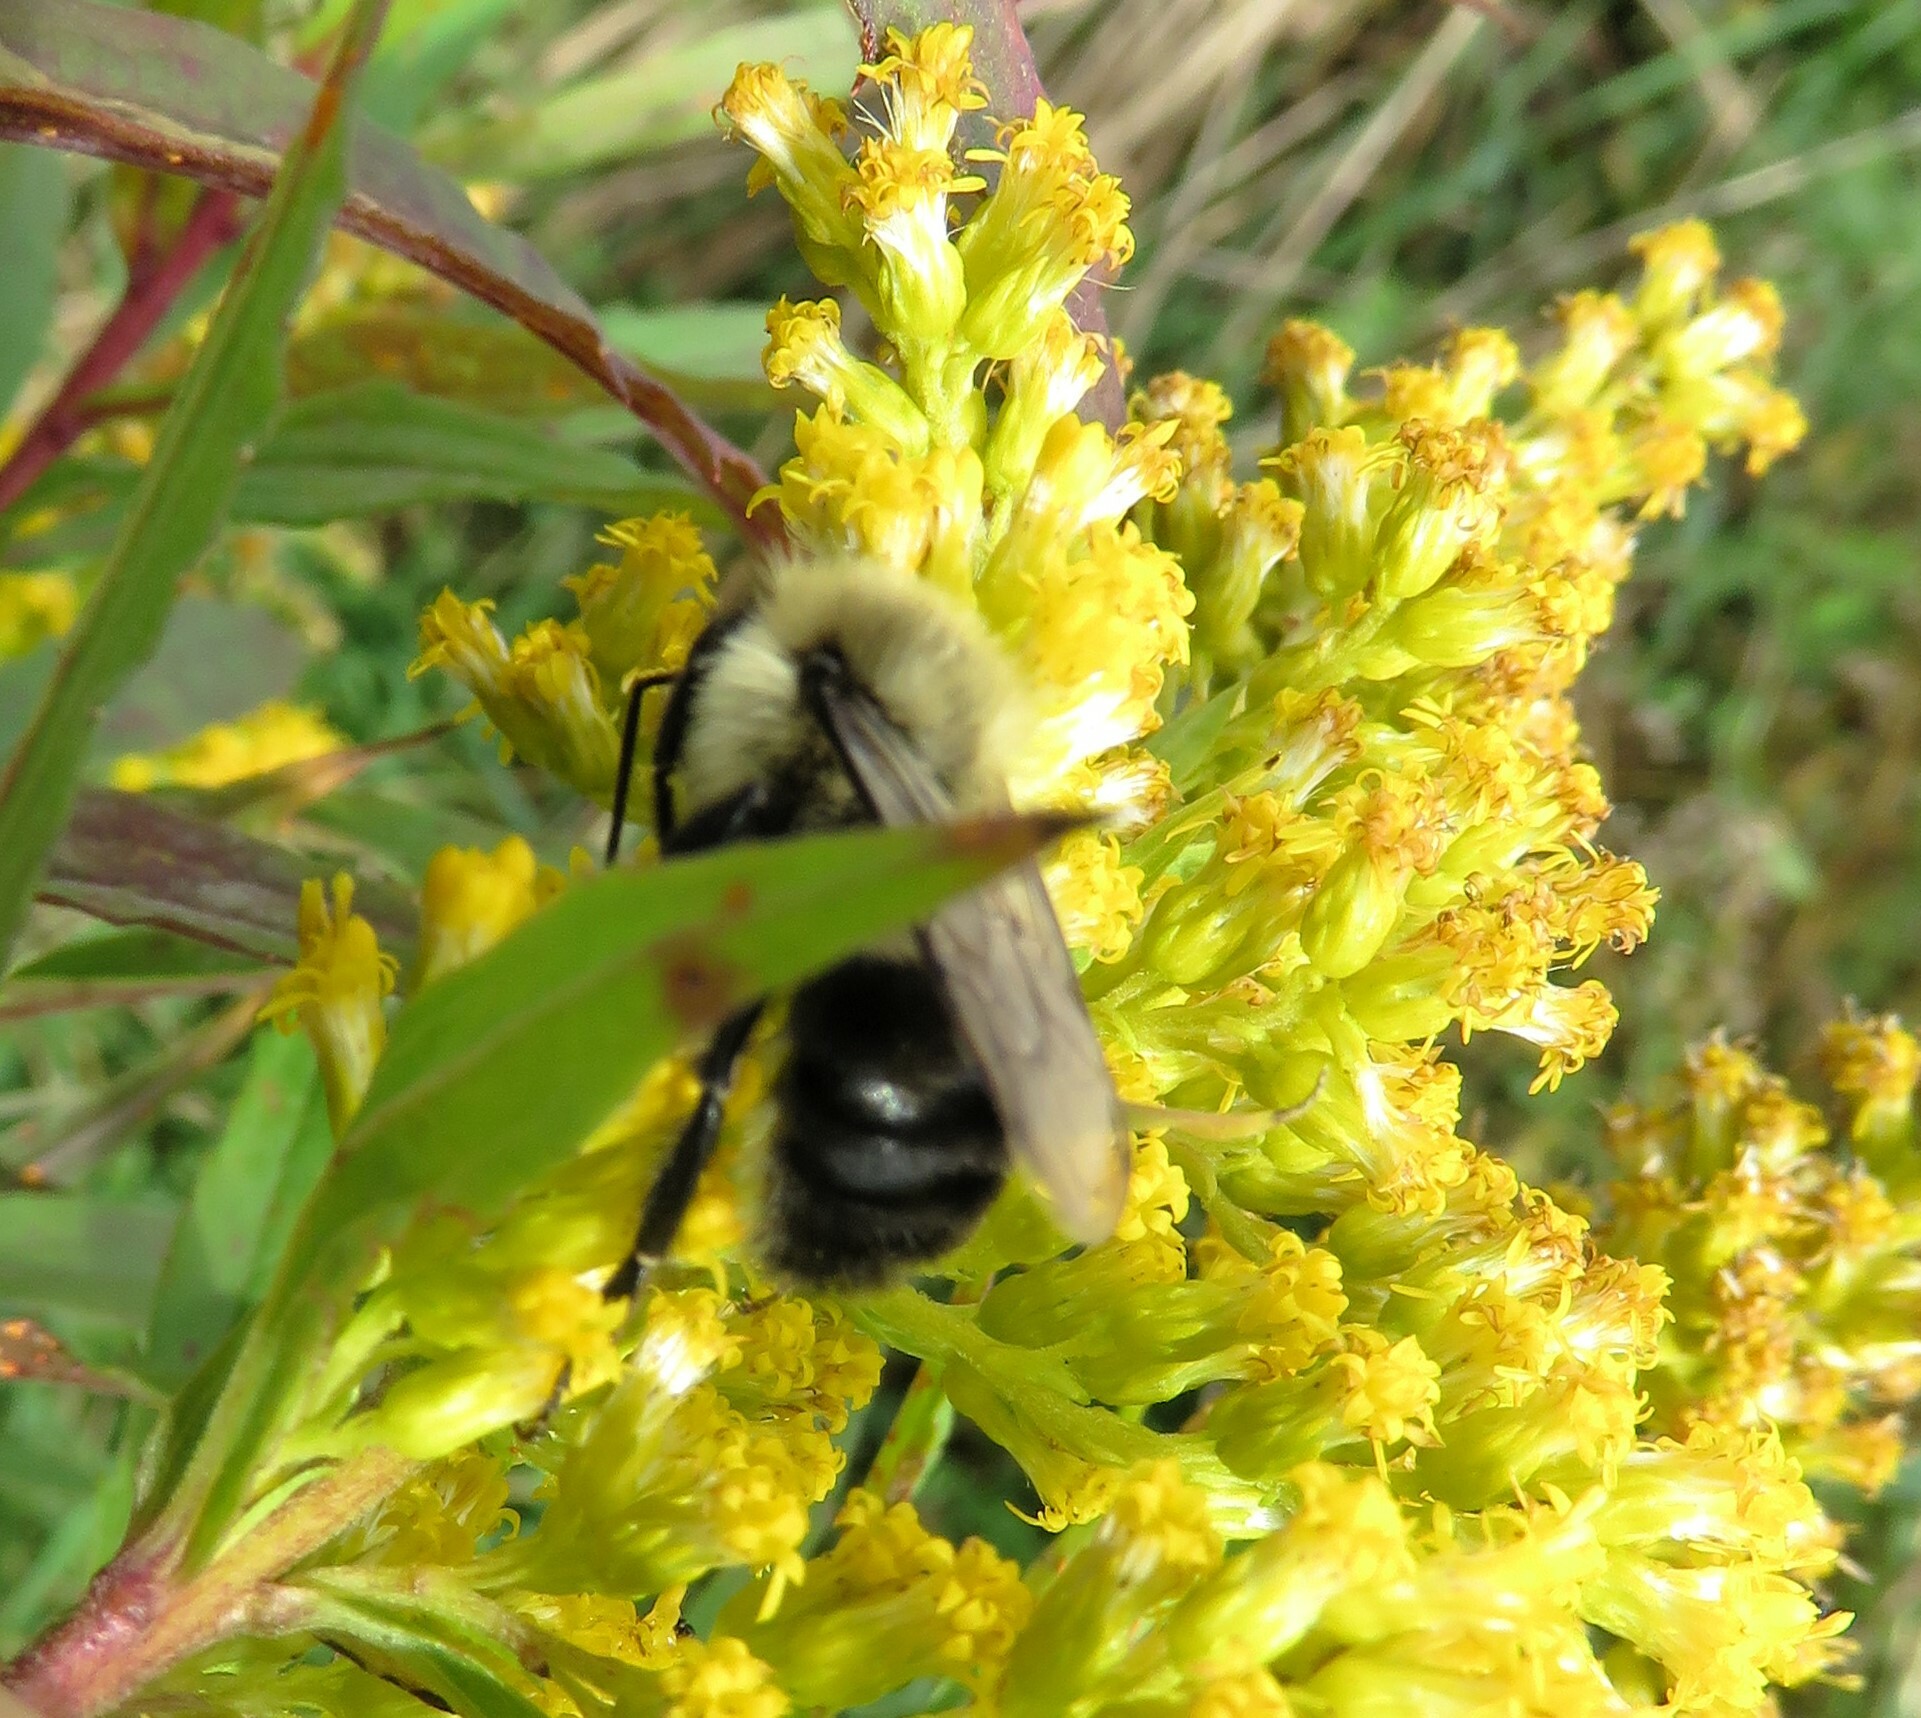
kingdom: Animalia
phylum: Arthropoda
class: Insecta
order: Hymenoptera
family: Apidae
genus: Bombus
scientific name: Bombus impatiens
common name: Common eastern bumble bee
